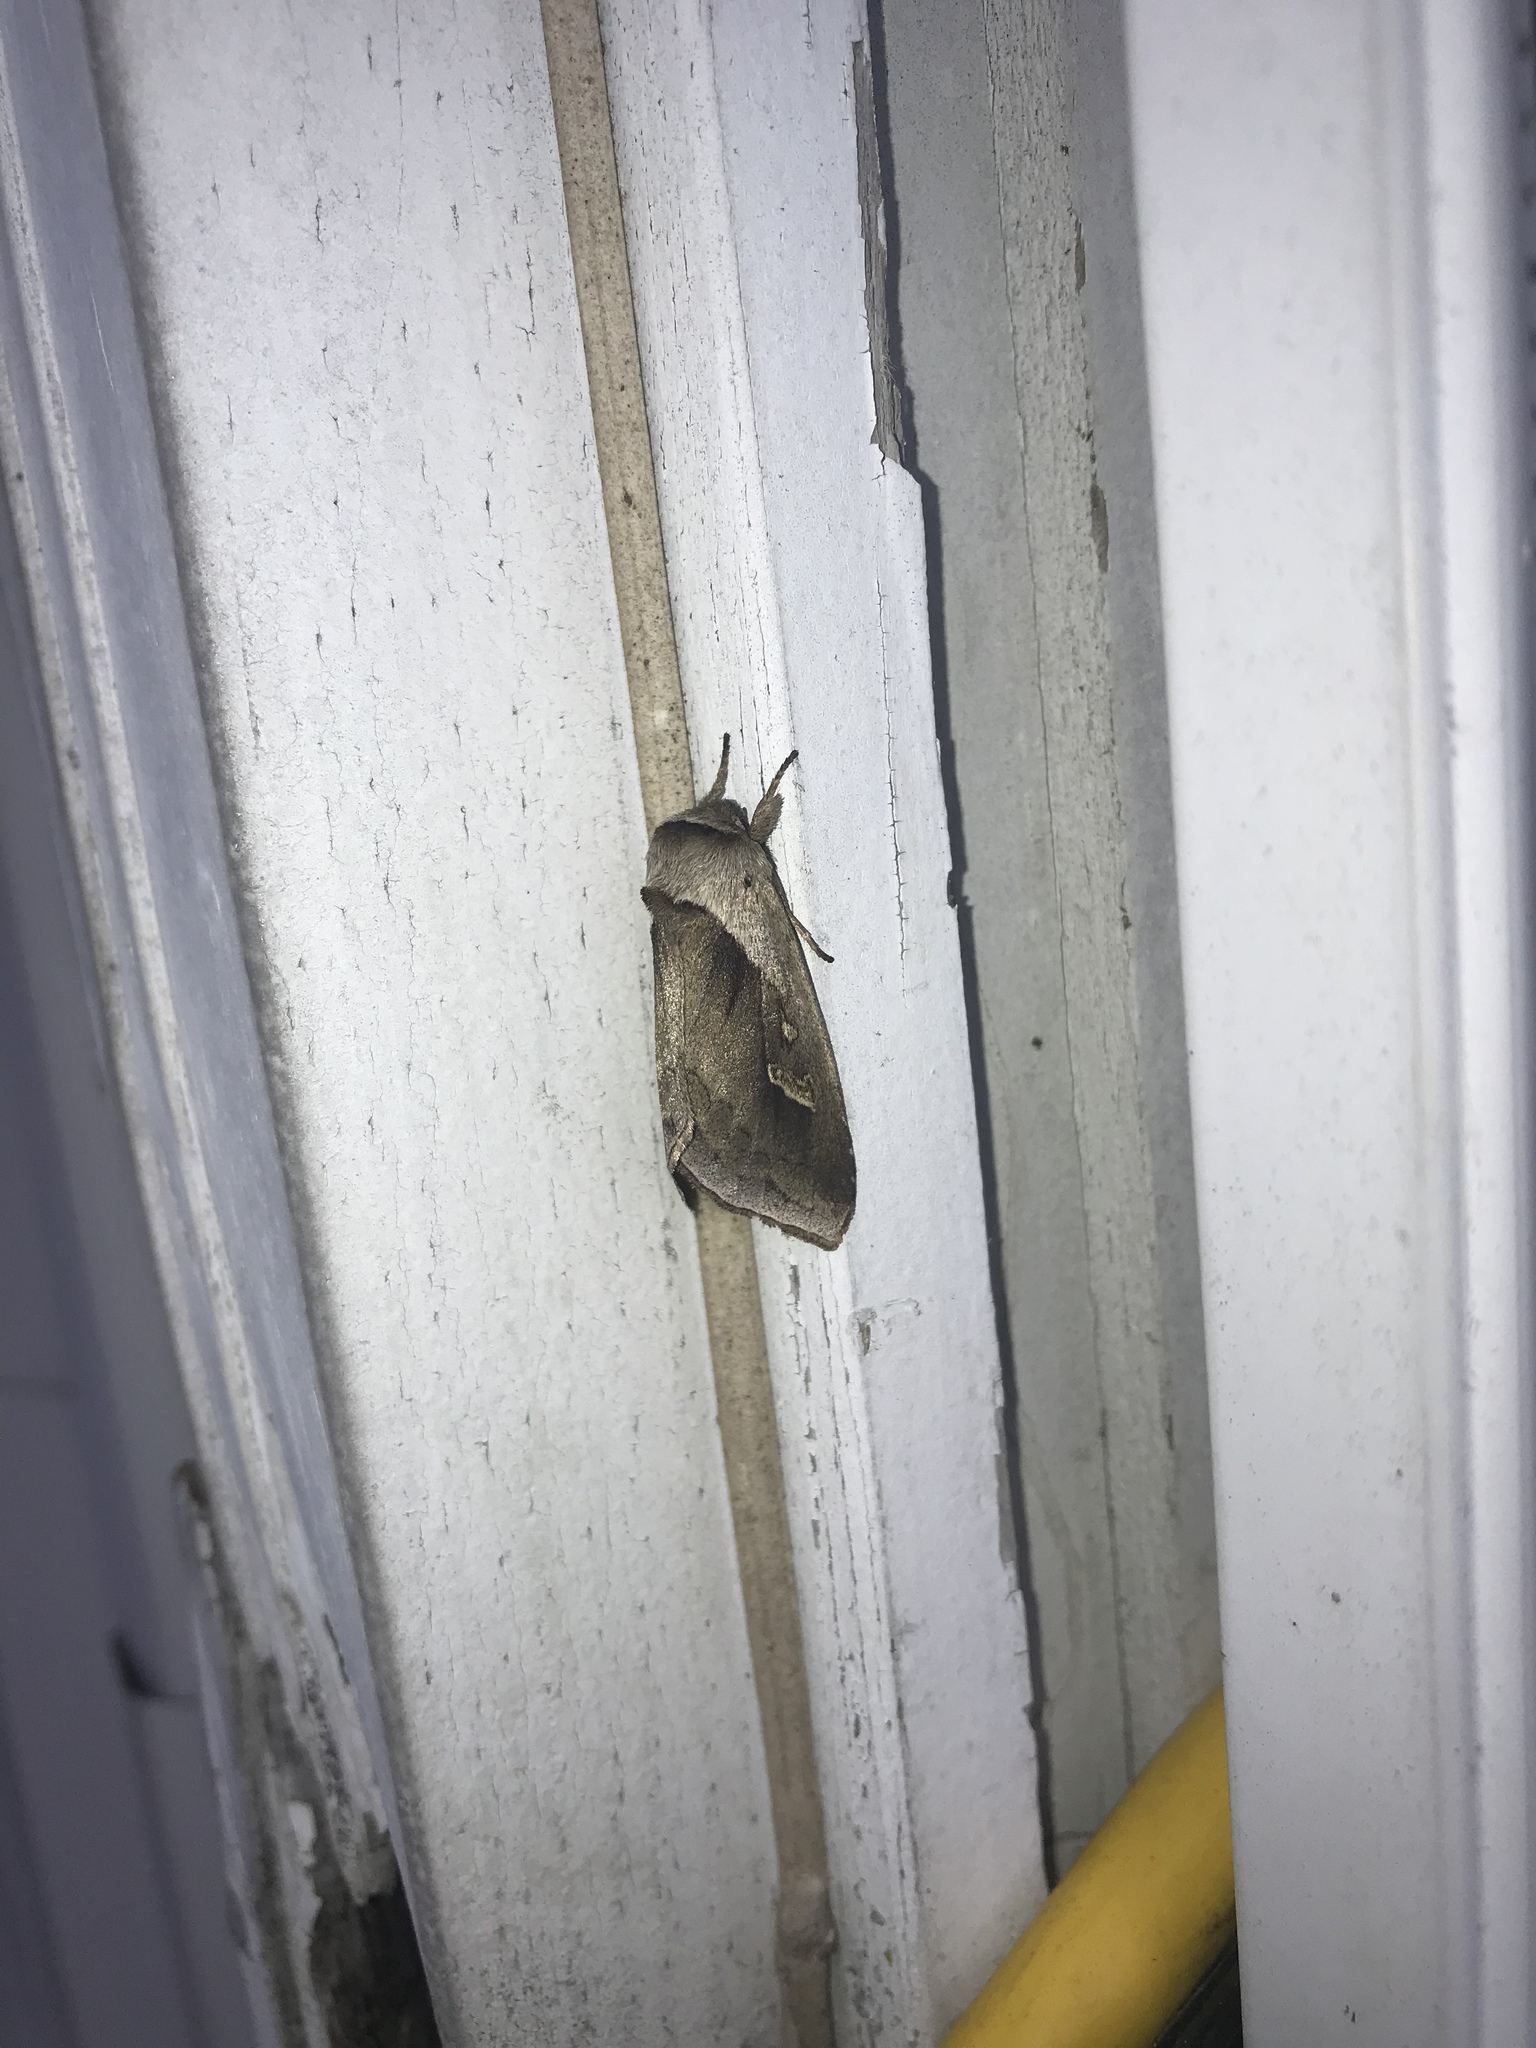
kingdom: Animalia
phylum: Arthropoda
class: Insecta
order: Lepidoptera
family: Noctuidae
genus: Bellura
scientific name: Bellura obliqua
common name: Cattail borer moth
